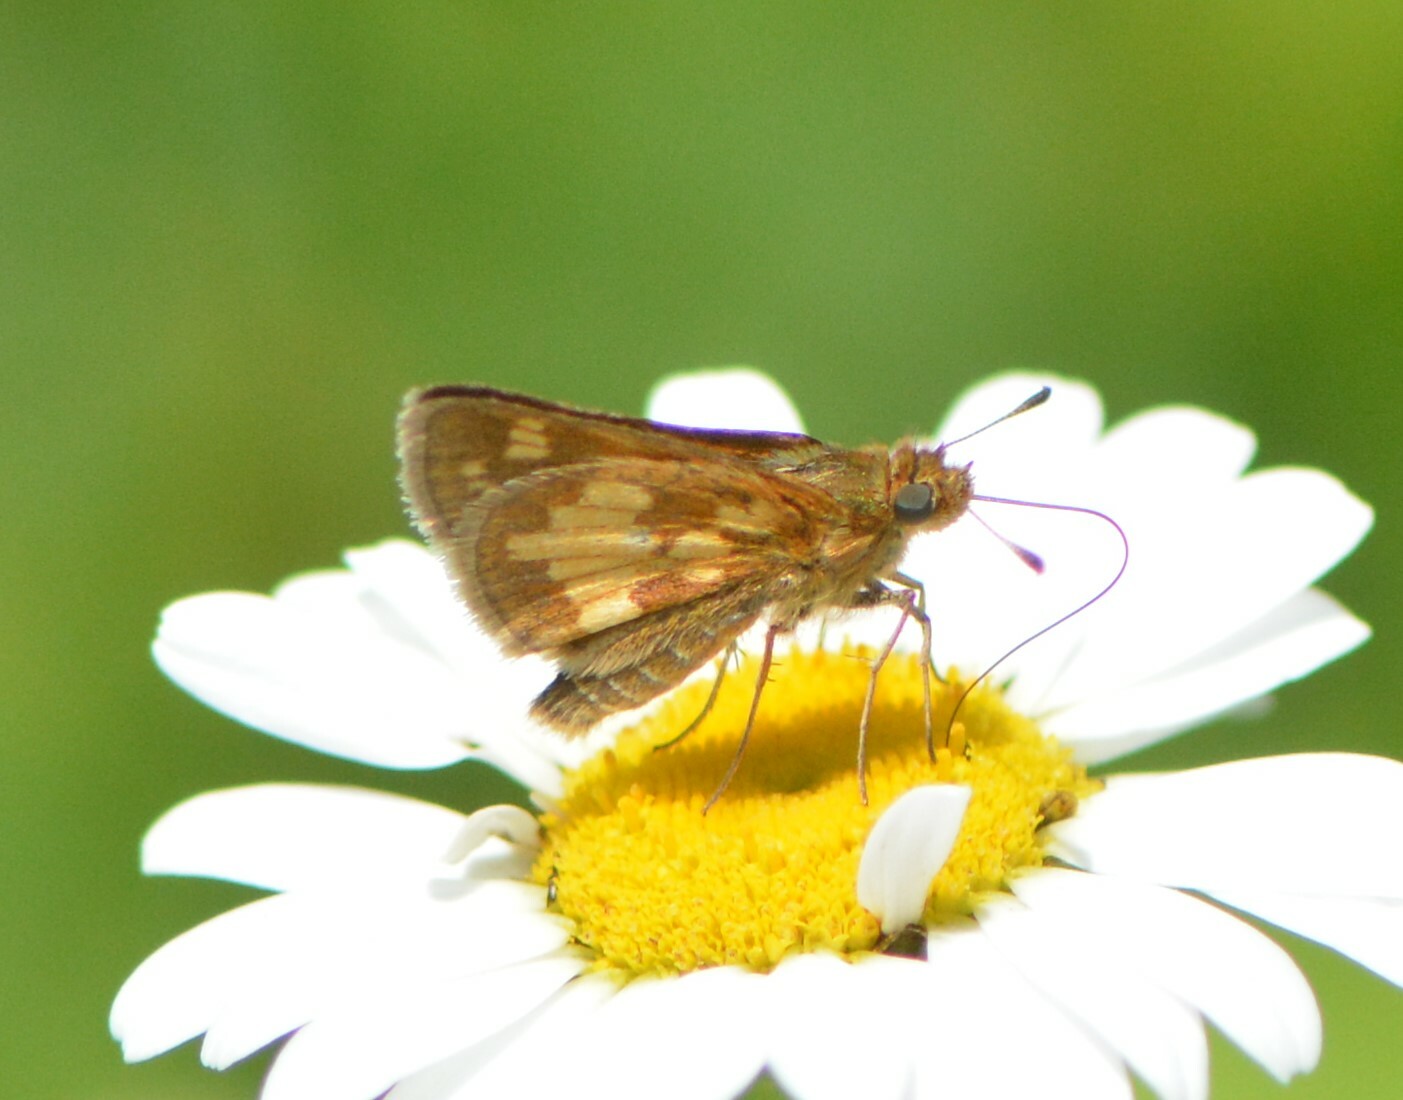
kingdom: Animalia
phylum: Arthropoda
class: Insecta
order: Lepidoptera
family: Hesperiidae
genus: Polites
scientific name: Polites coras
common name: Peck's skipper
